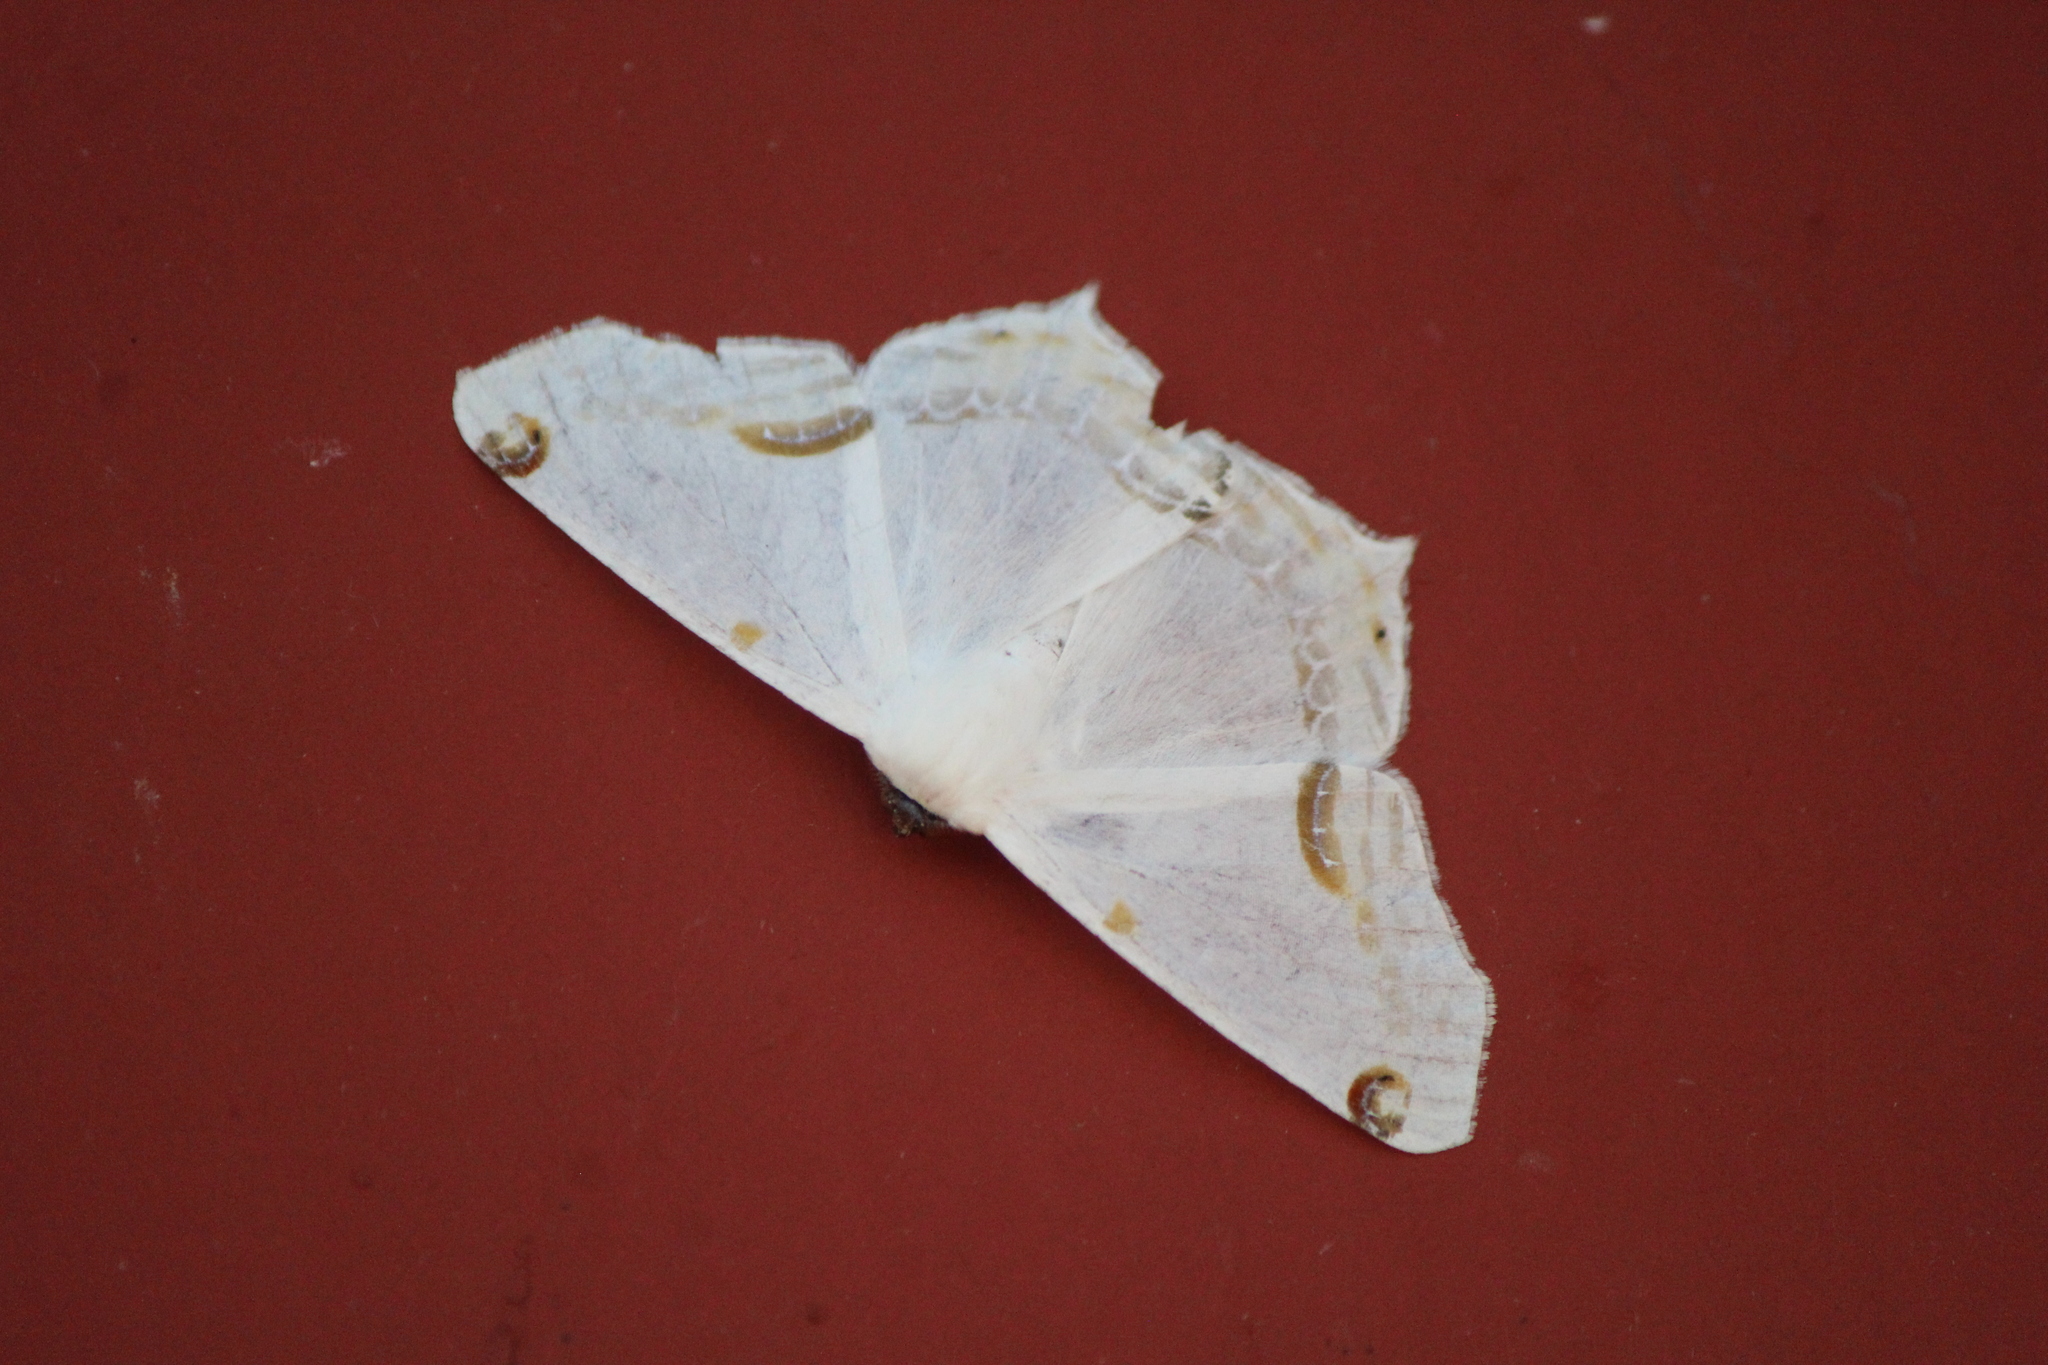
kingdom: Animalia
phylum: Arthropoda
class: Insecta
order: Lepidoptera
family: Geometridae
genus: Sericoptera
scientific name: Sericoptera mahometaria
